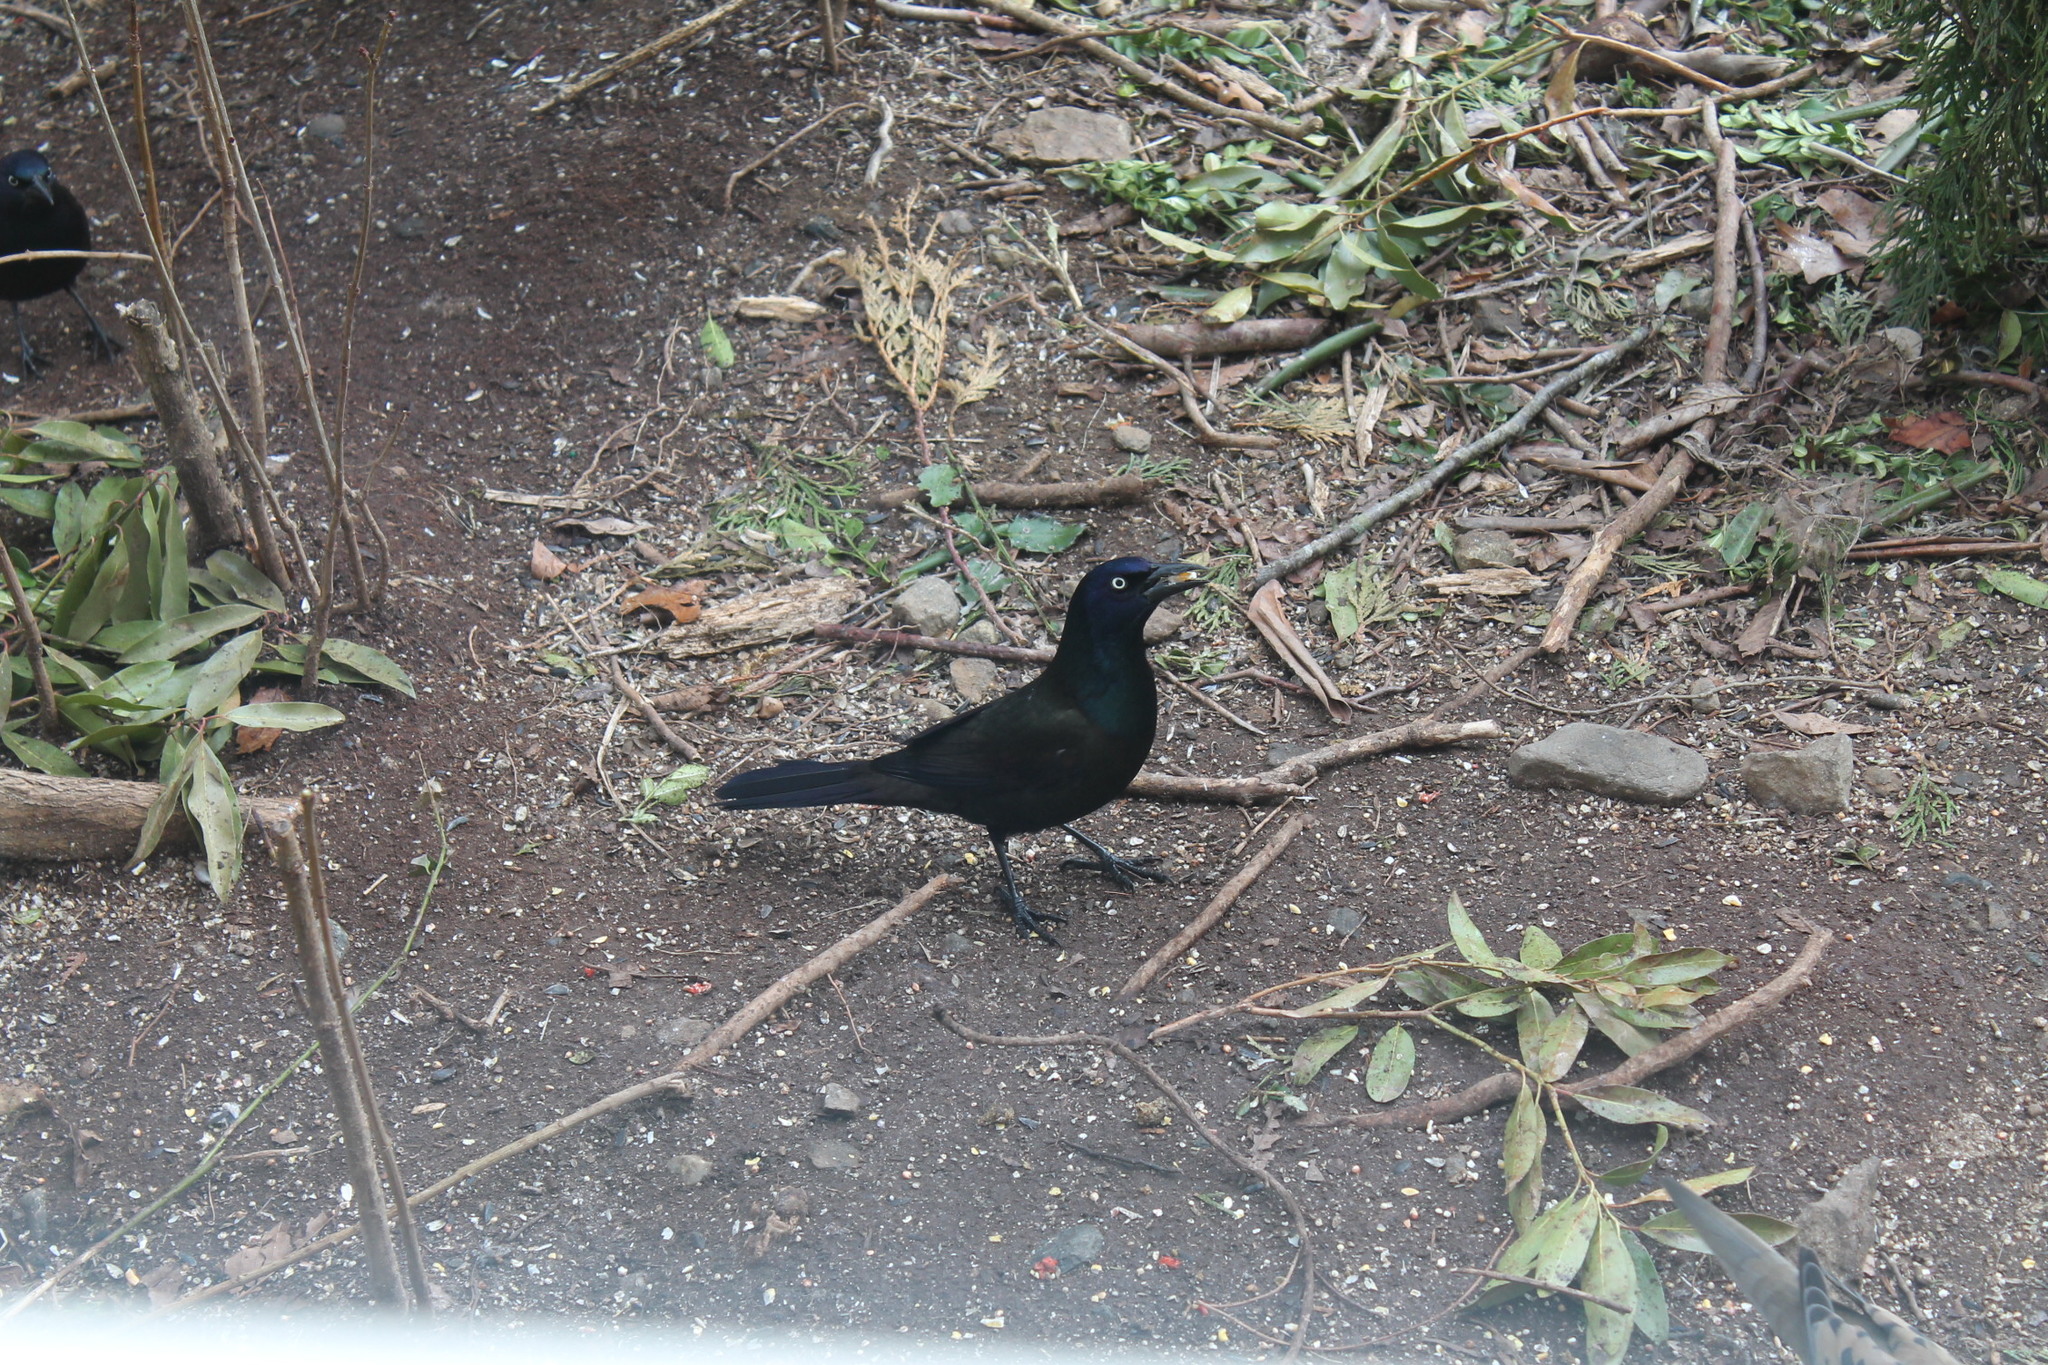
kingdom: Animalia
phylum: Chordata
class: Aves
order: Passeriformes
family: Icteridae
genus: Quiscalus
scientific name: Quiscalus quiscula
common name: Common grackle
